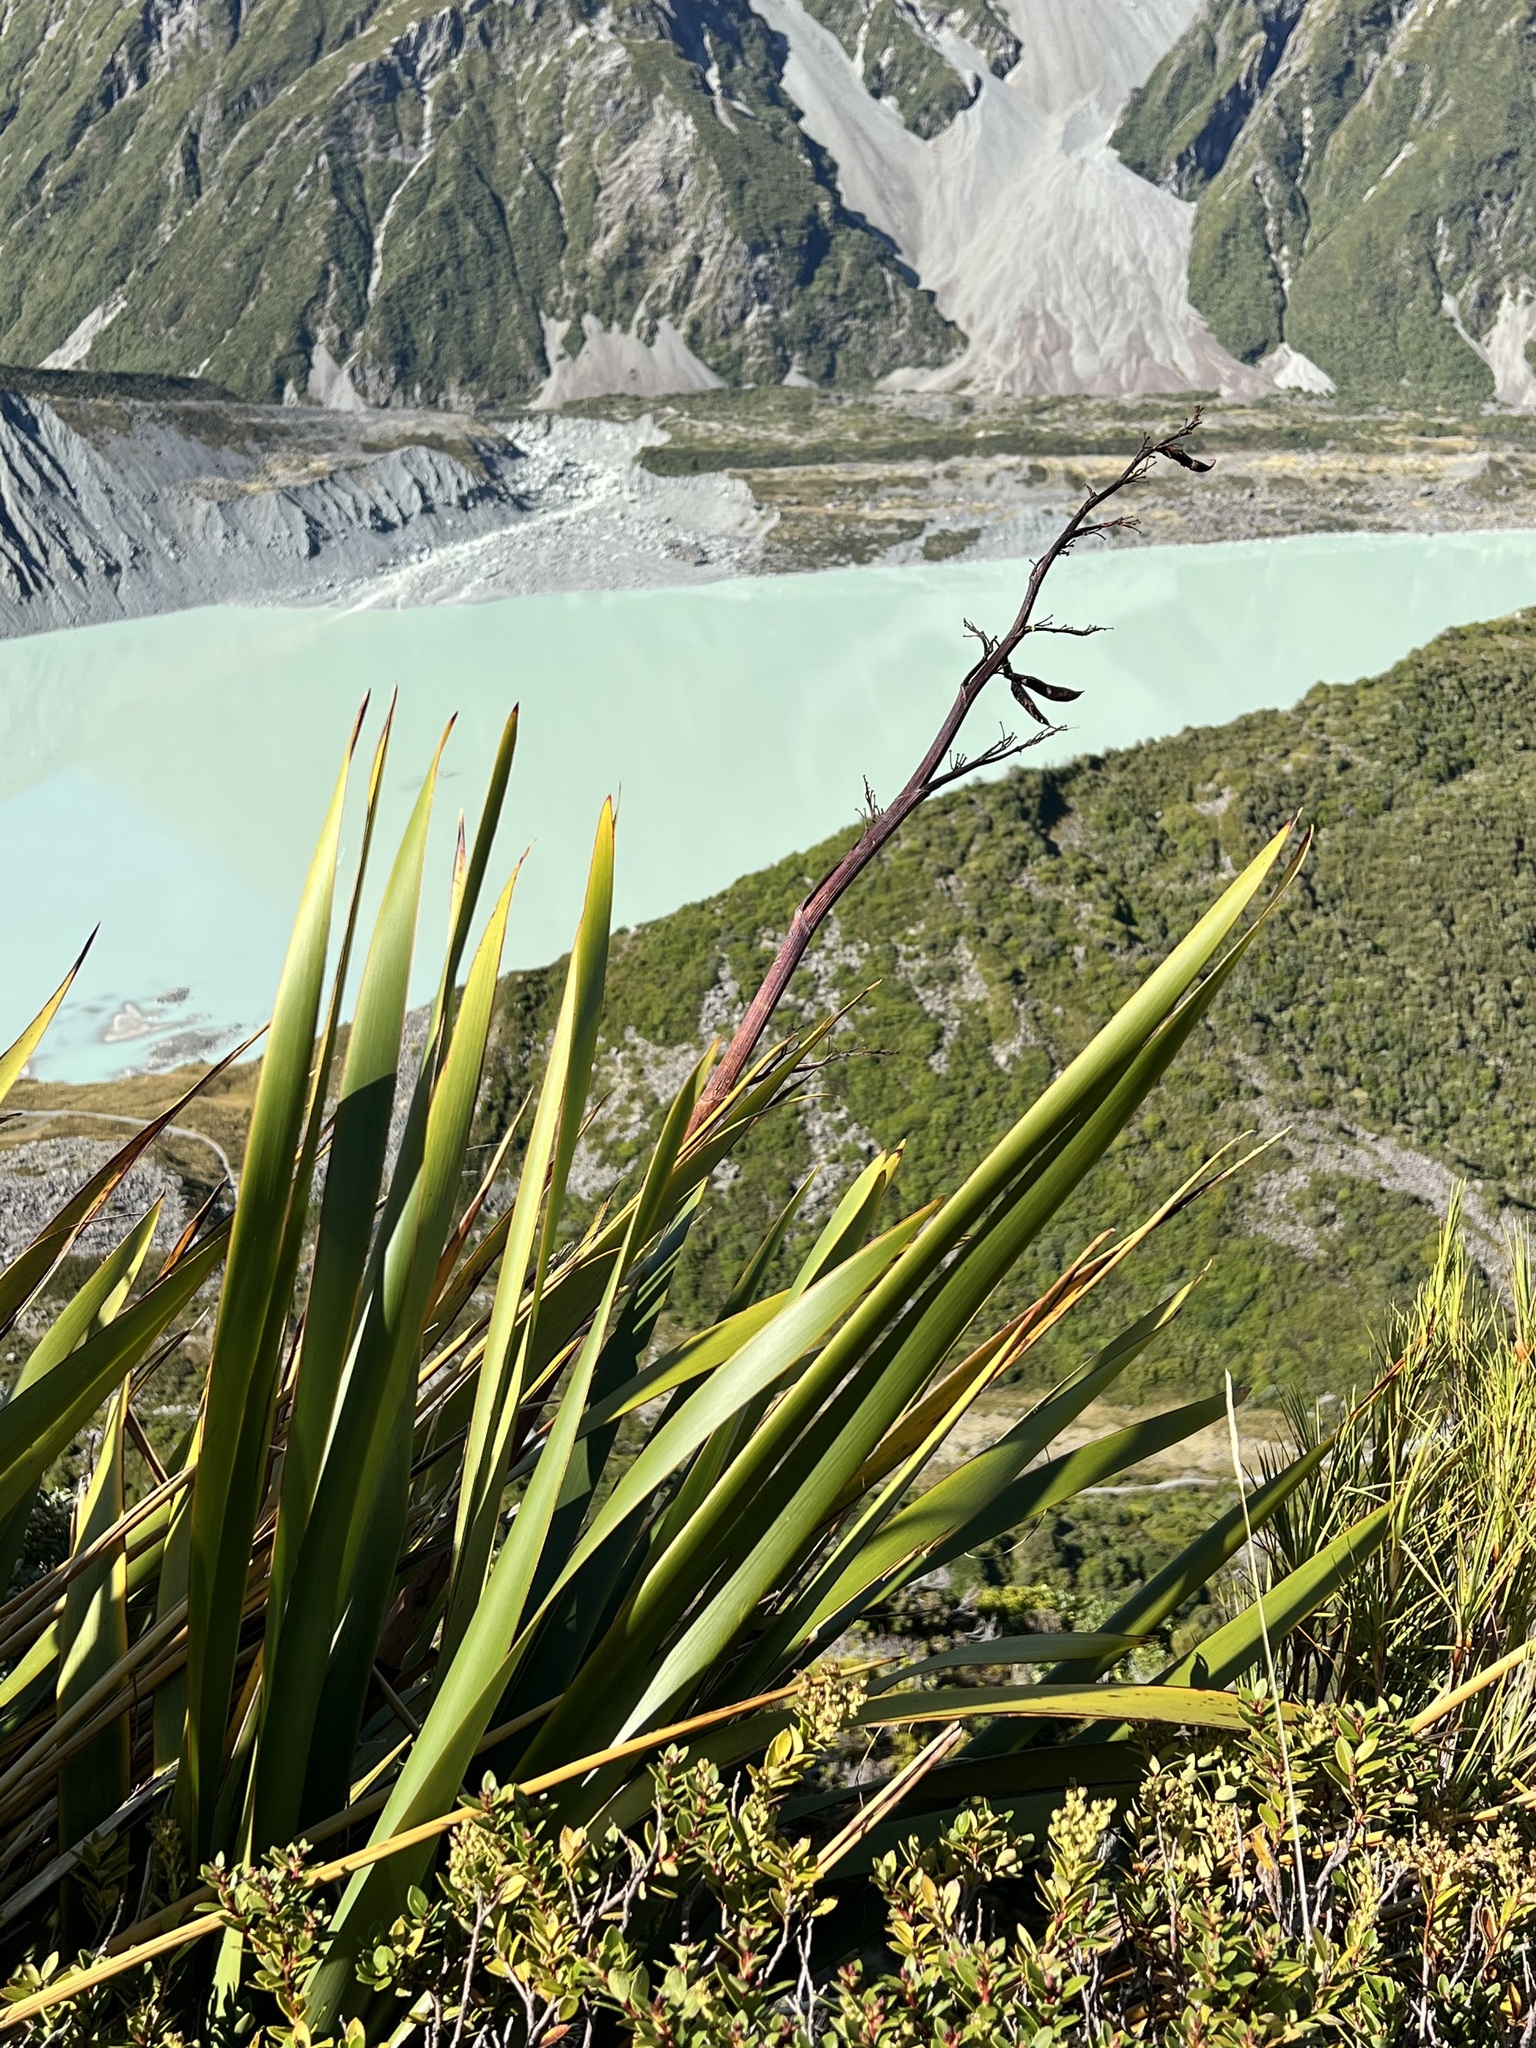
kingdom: Plantae
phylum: Tracheophyta
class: Liliopsida
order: Asparagales
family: Asphodelaceae
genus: Phormium
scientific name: Phormium colensoi
